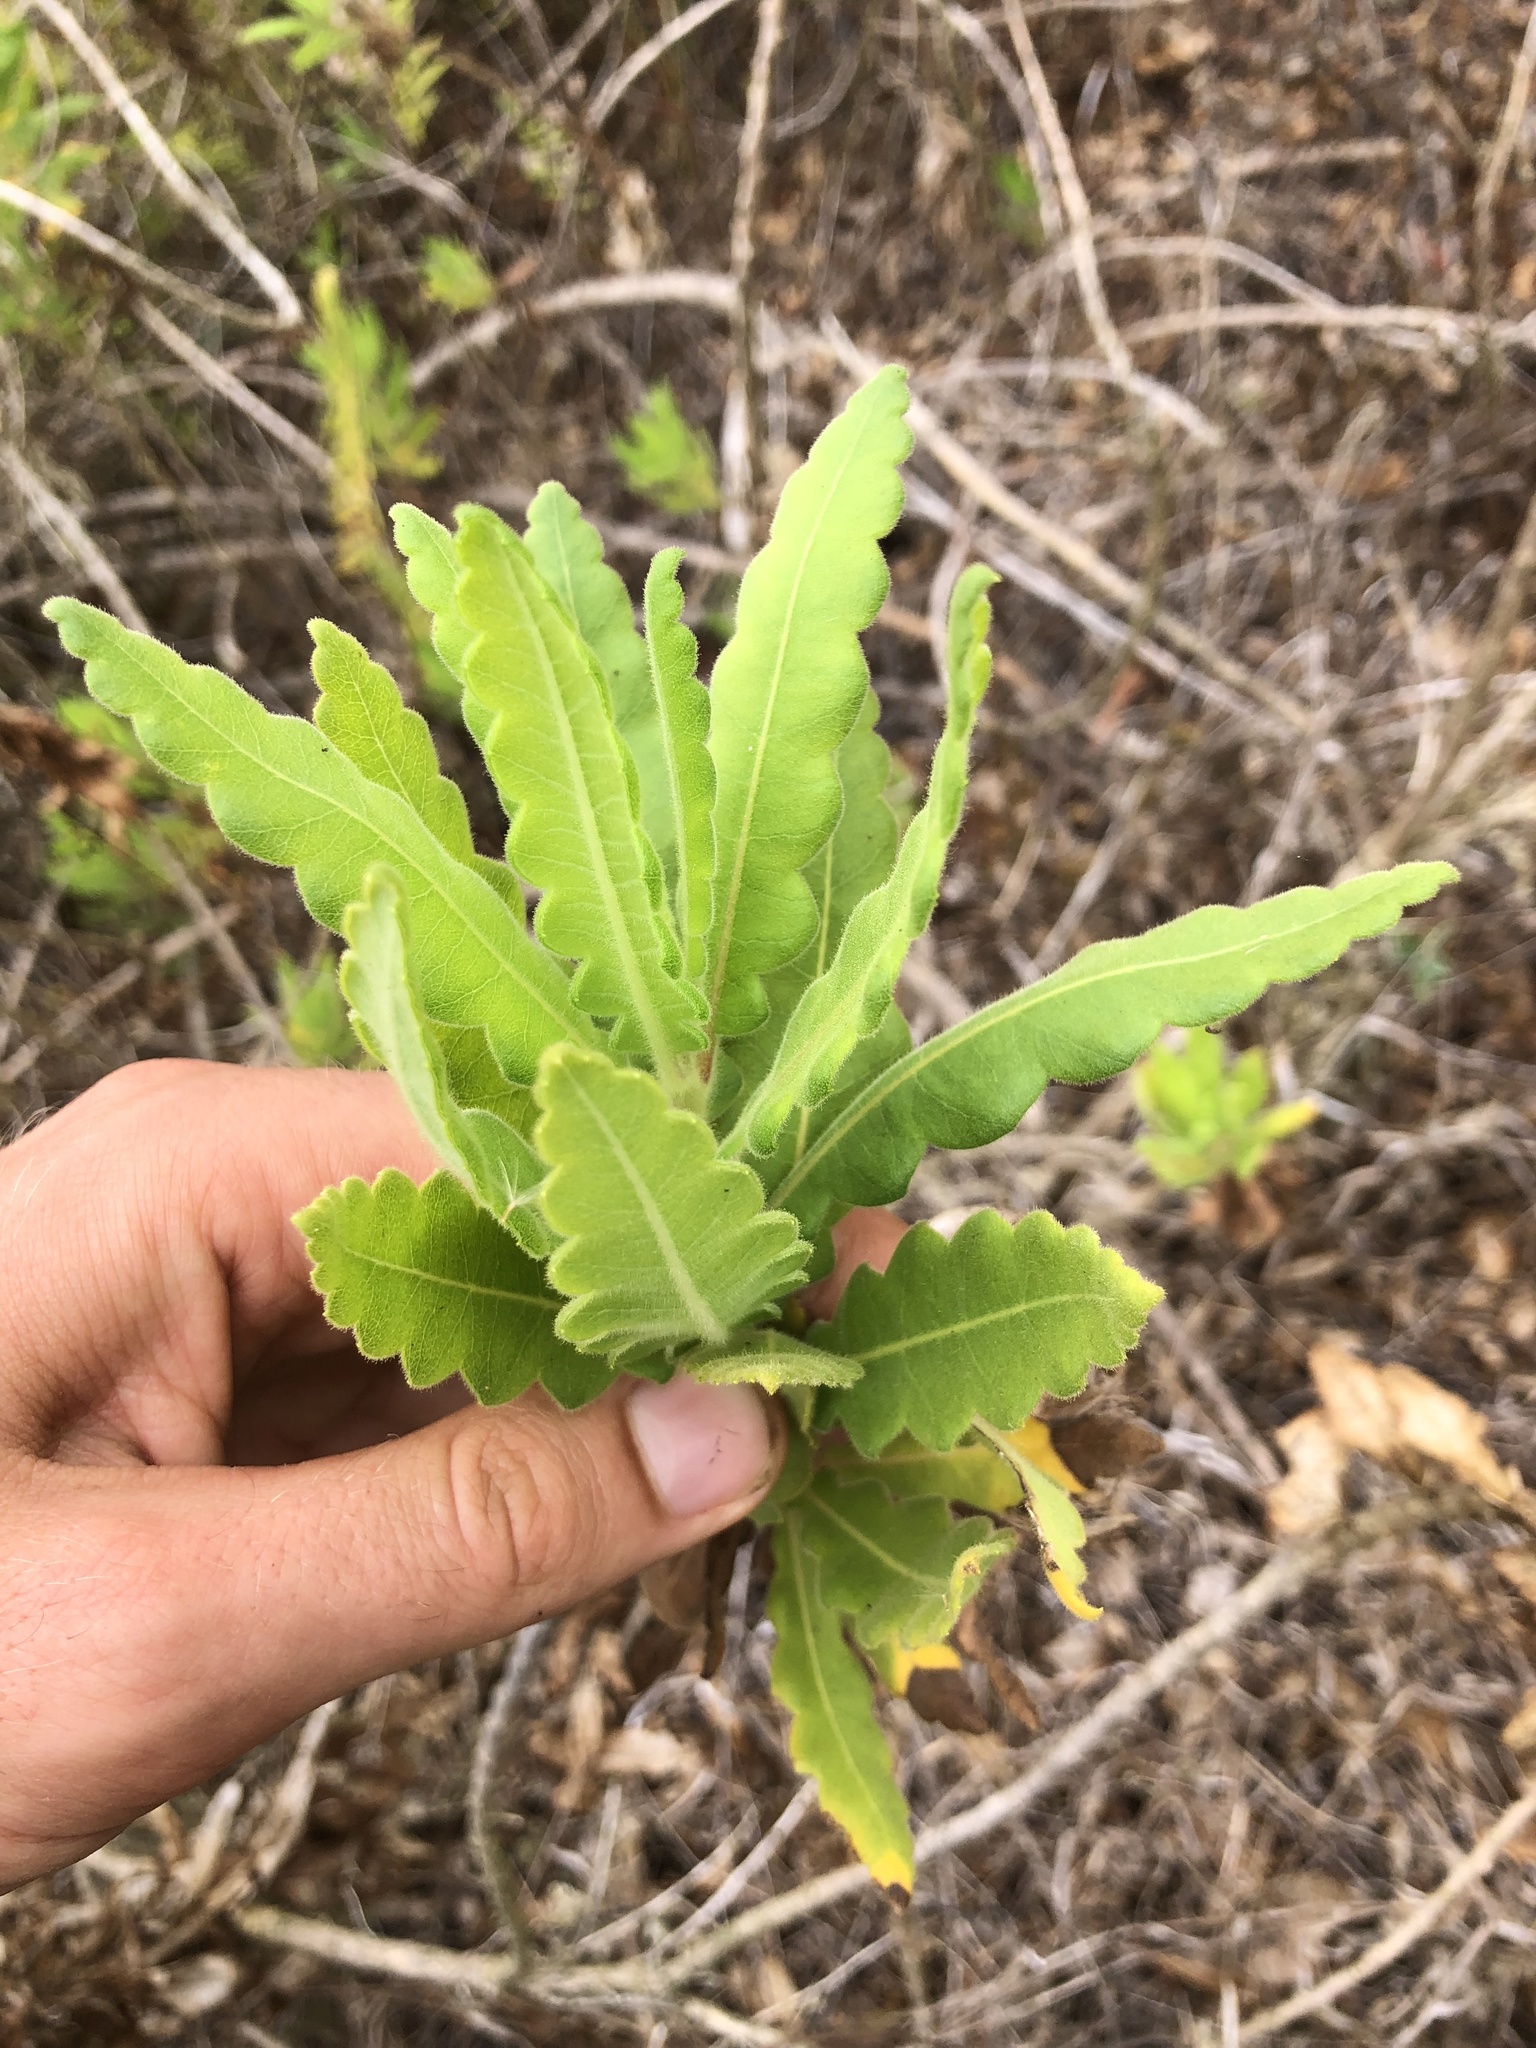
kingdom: Plantae
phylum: Tracheophyta
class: Magnoliopsida
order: Ericales
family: Polemoniaceae
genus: Cantua
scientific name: Cantua quercifolia
